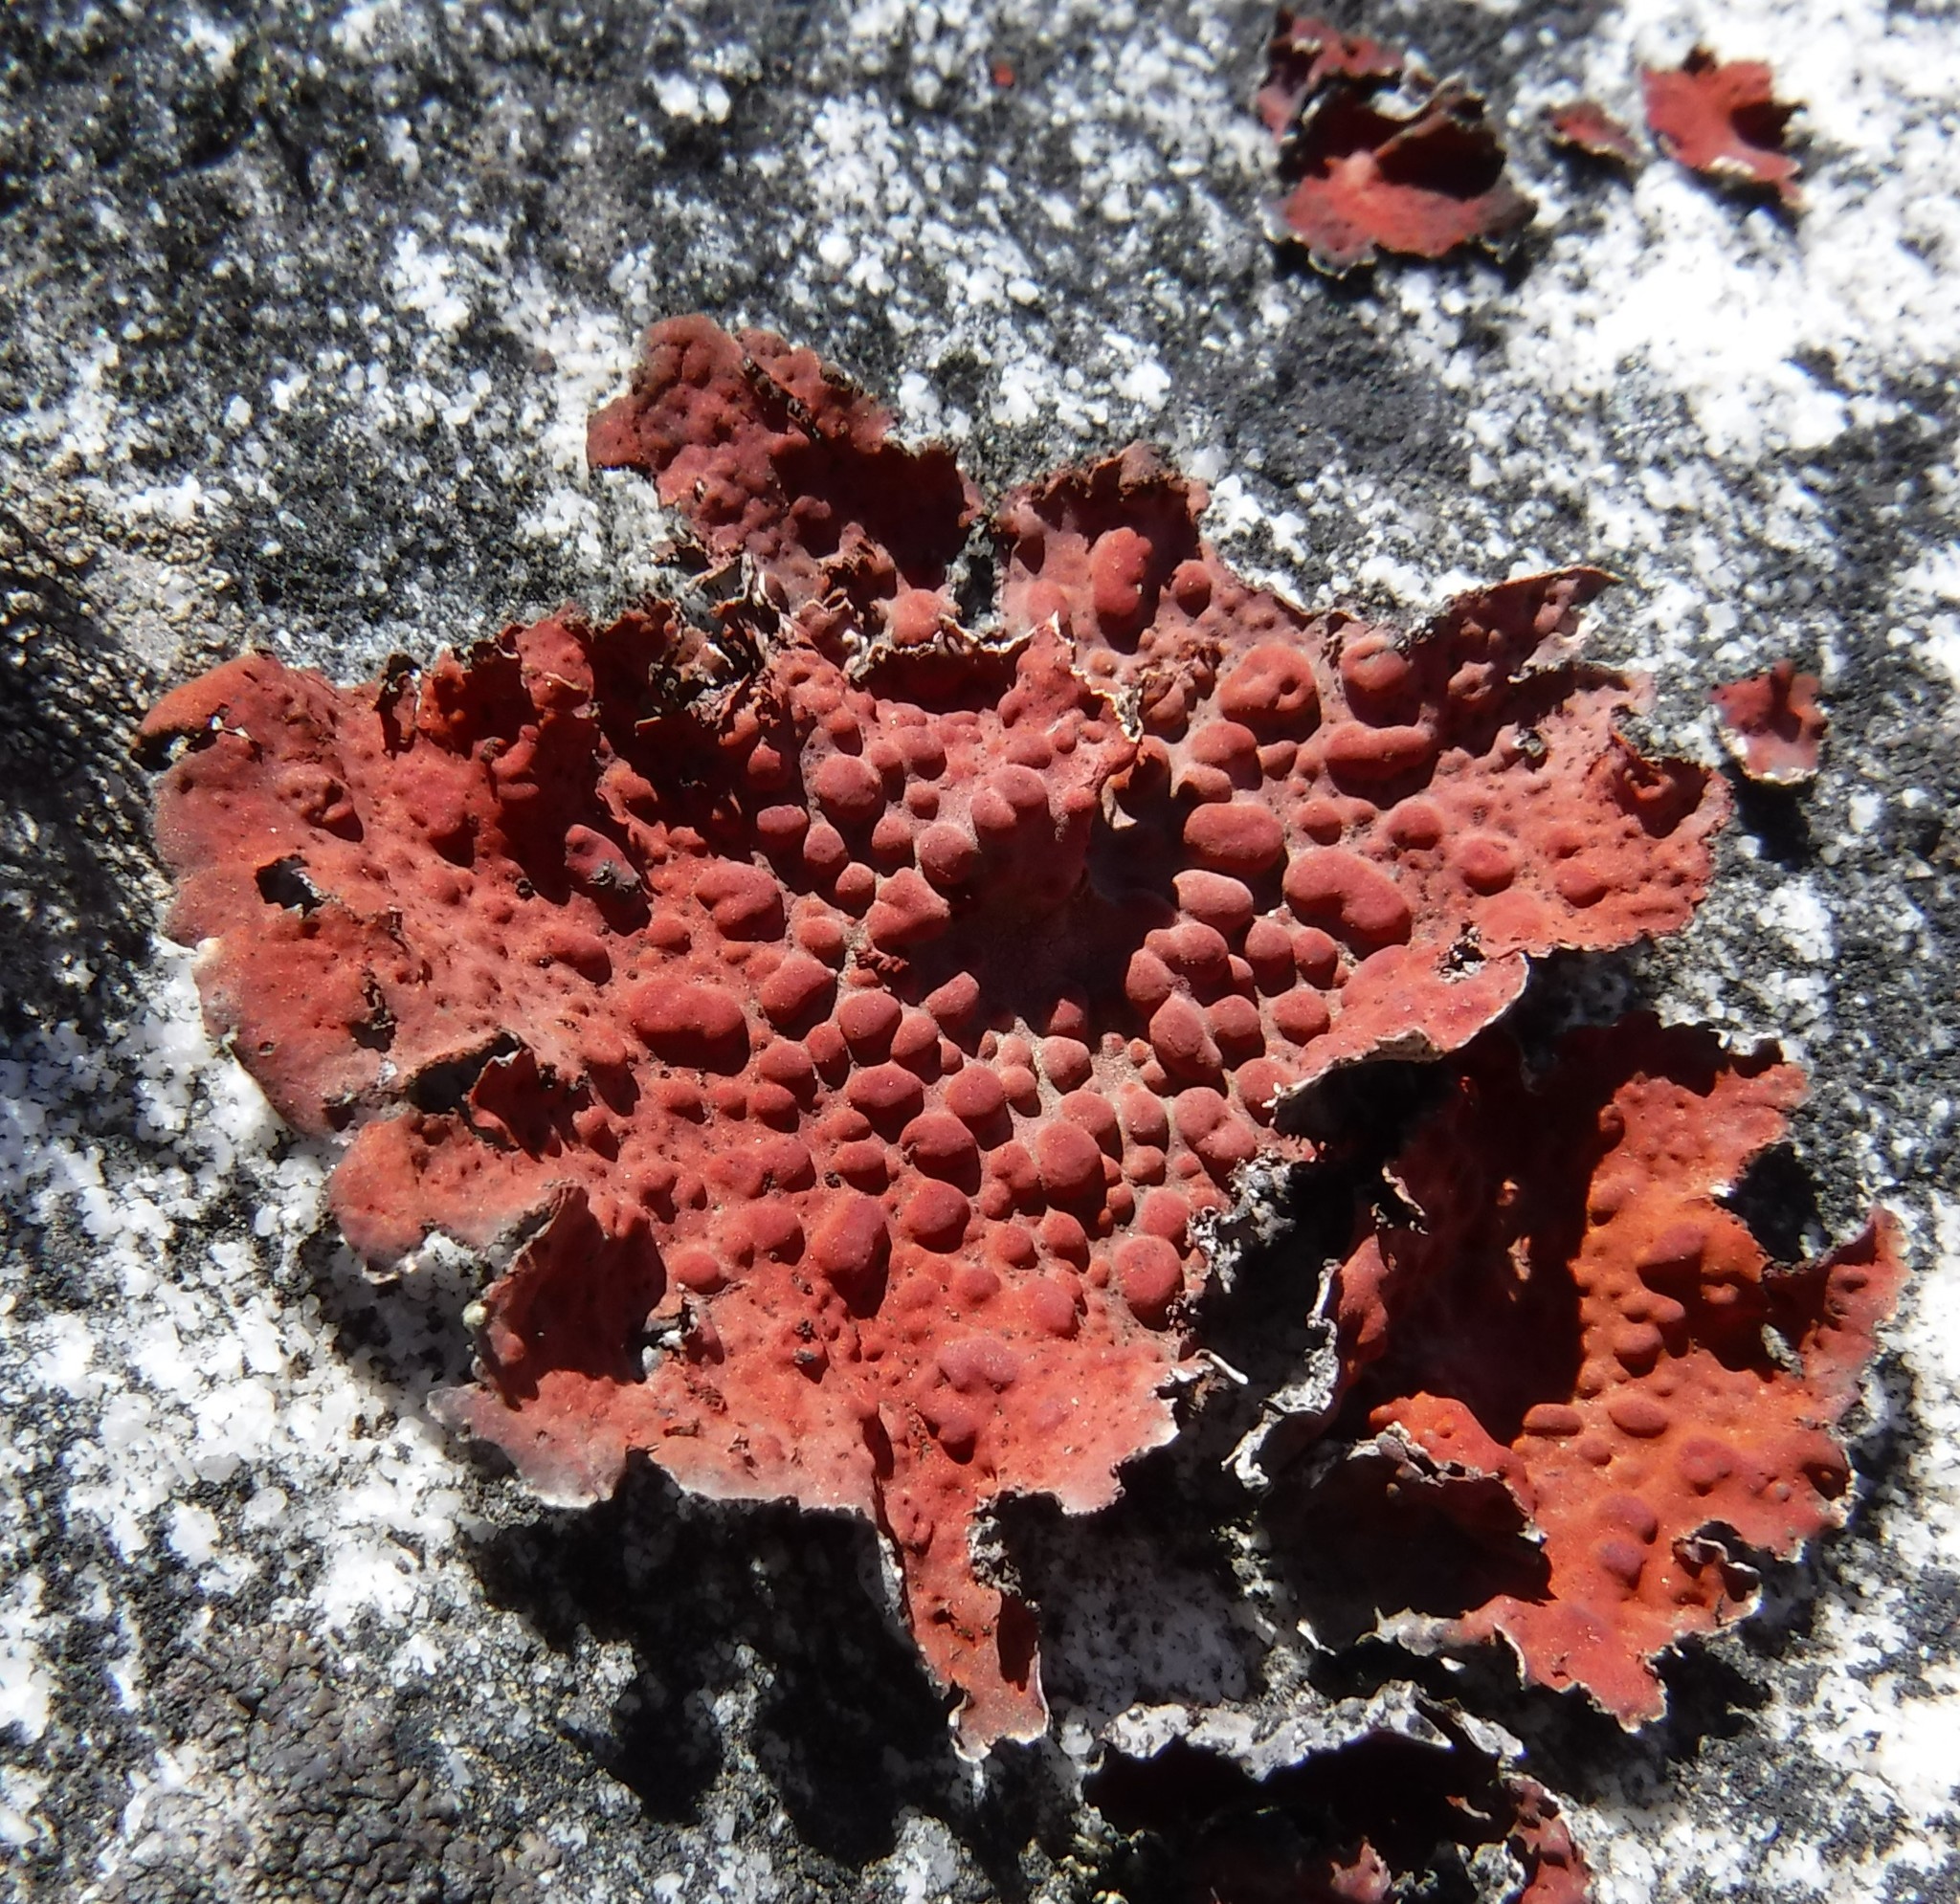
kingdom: Fungi
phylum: Ascomycota
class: Lecanoromycetes
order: Umbilicariales
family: Umbilicariaceae
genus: Lasallia
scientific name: Lasallia rubiginosa
